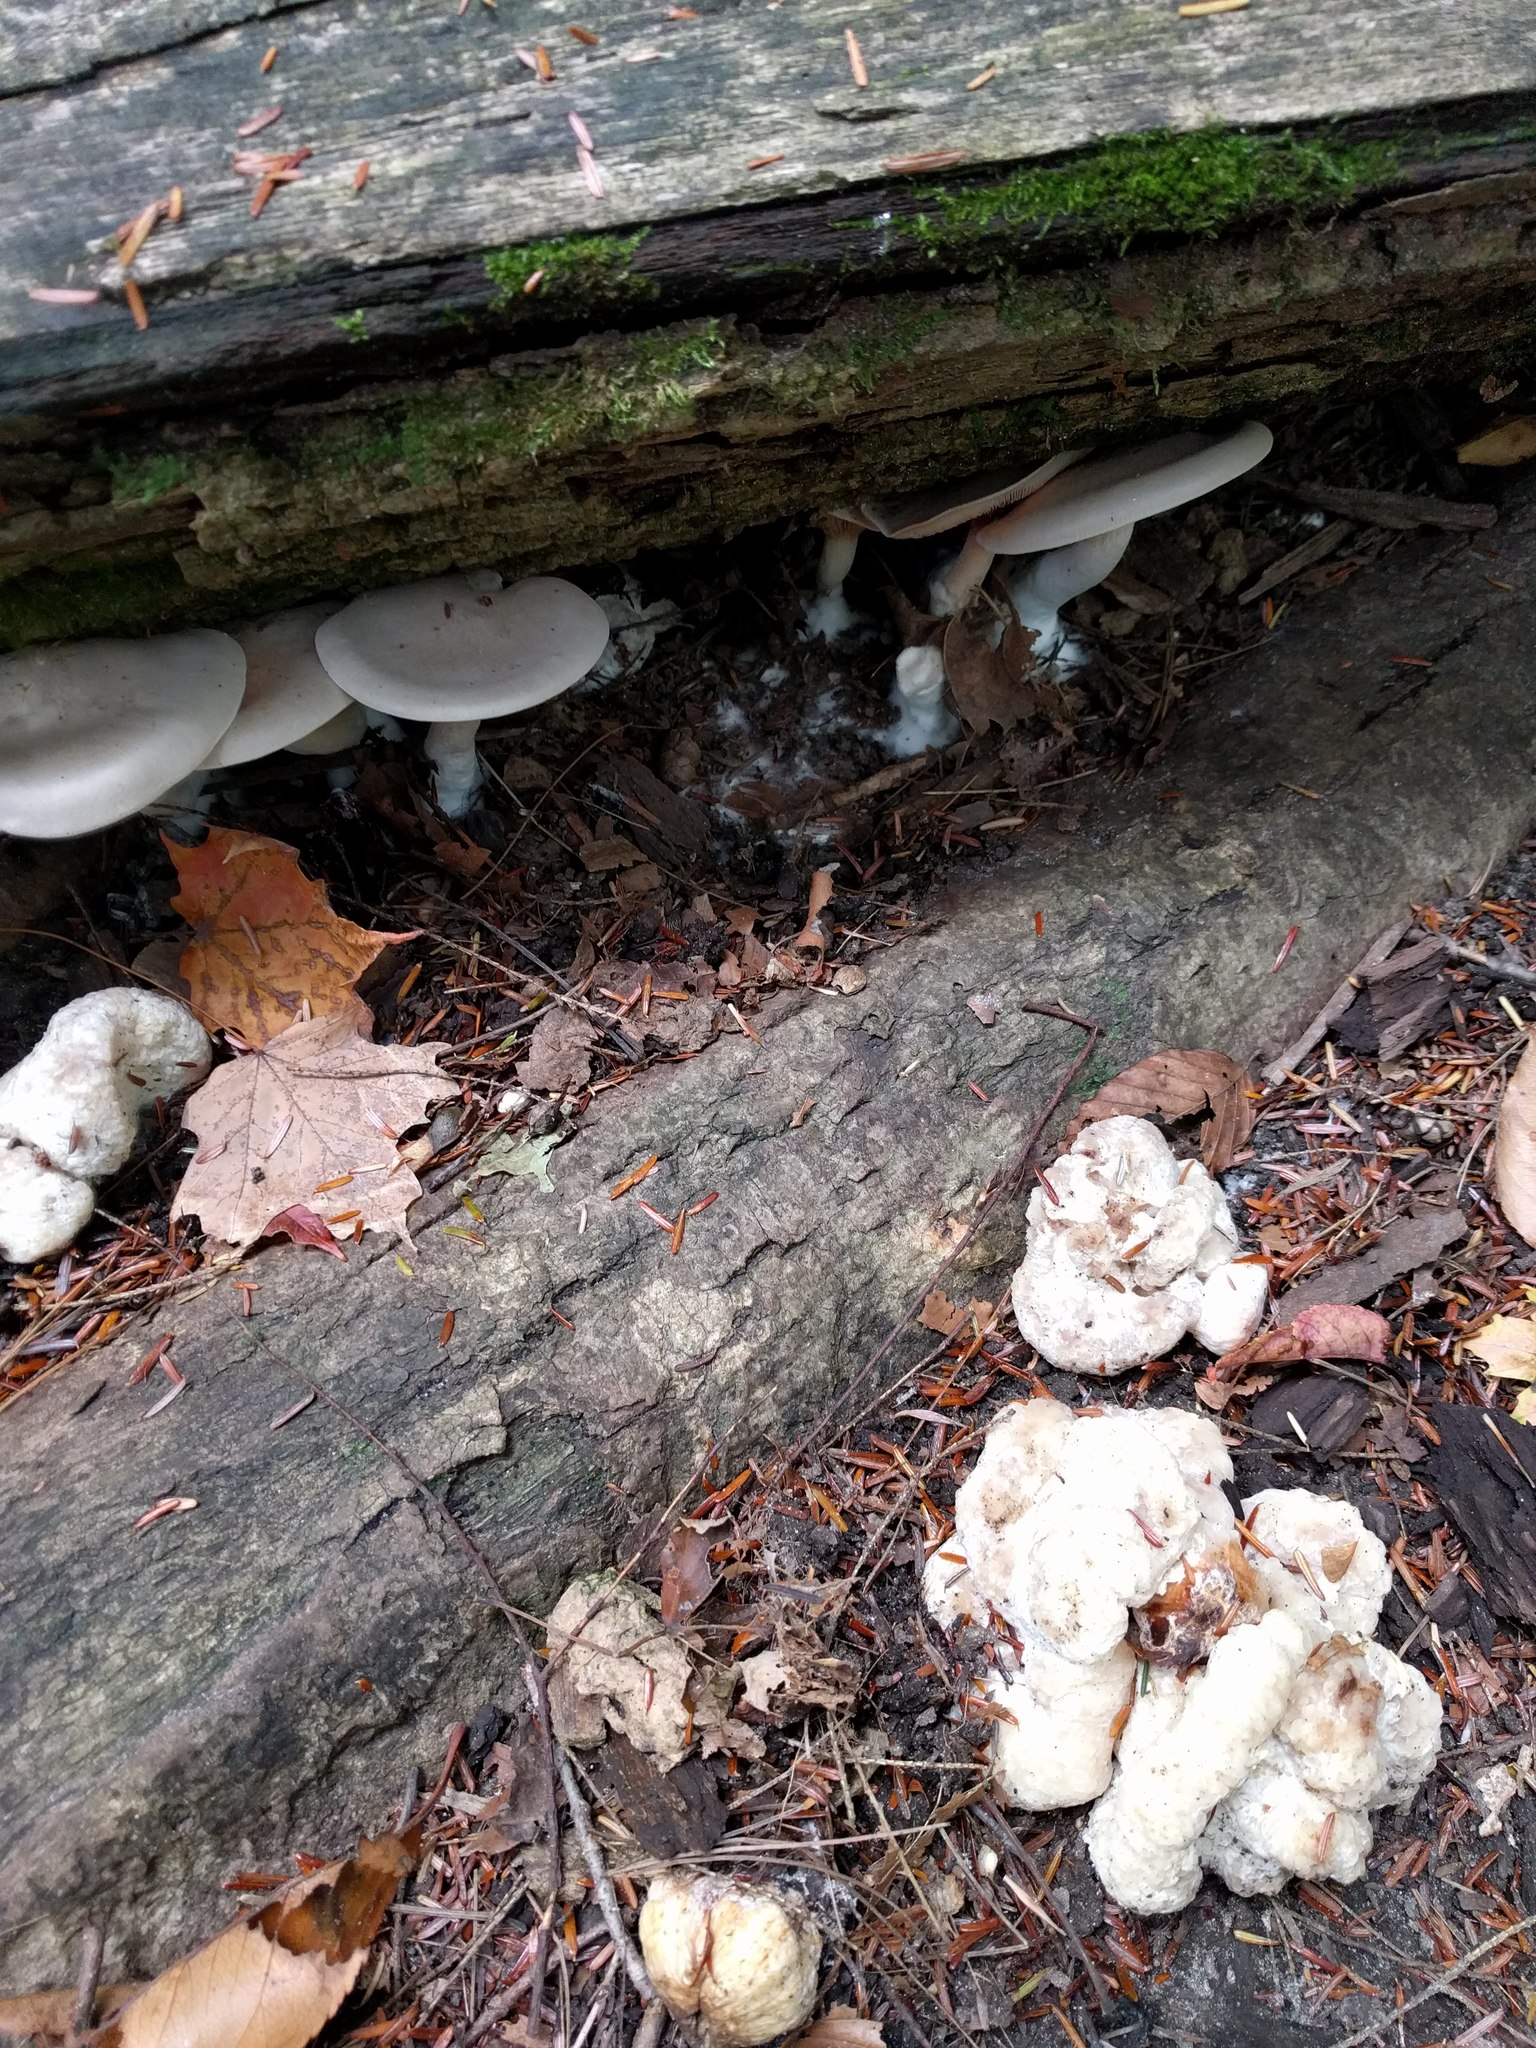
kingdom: Fungi
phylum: Basidiomycota
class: Agaricomycetes
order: Agaricales
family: Entolomataceae
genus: Entoloma
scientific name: Entoloma abortivum
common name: Aborted entoloma
